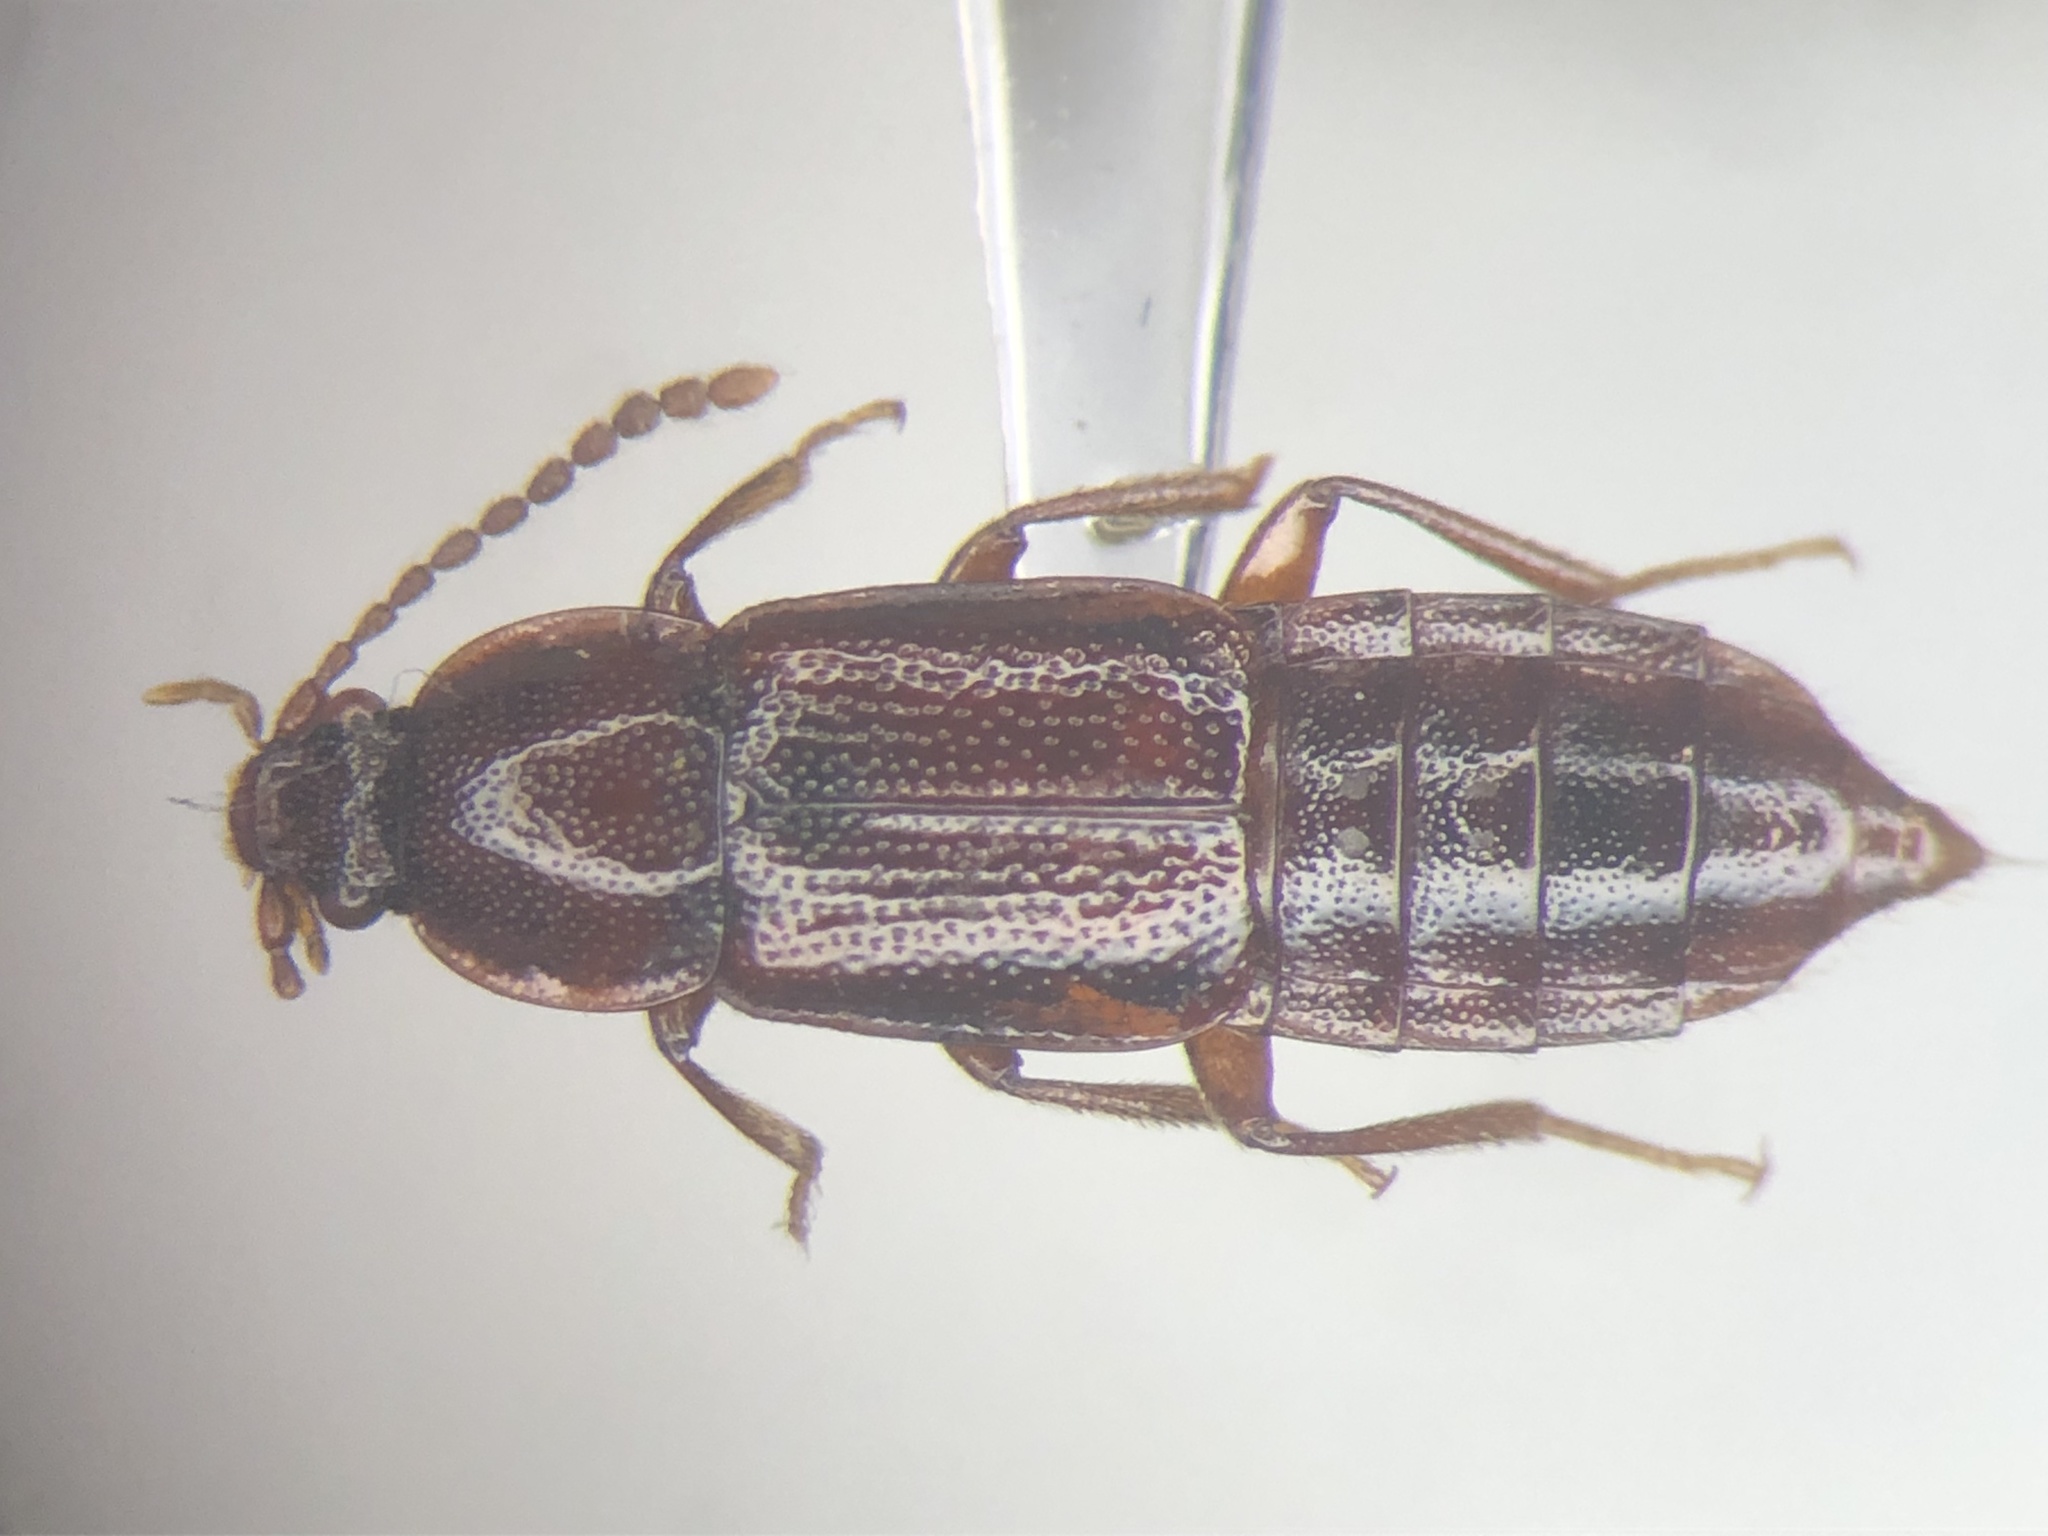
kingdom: Animalia
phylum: Arthropoda
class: Insecta
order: Coleoptera
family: Staphylinidae
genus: Acidota
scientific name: Acidota crenata
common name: Staph beetle
